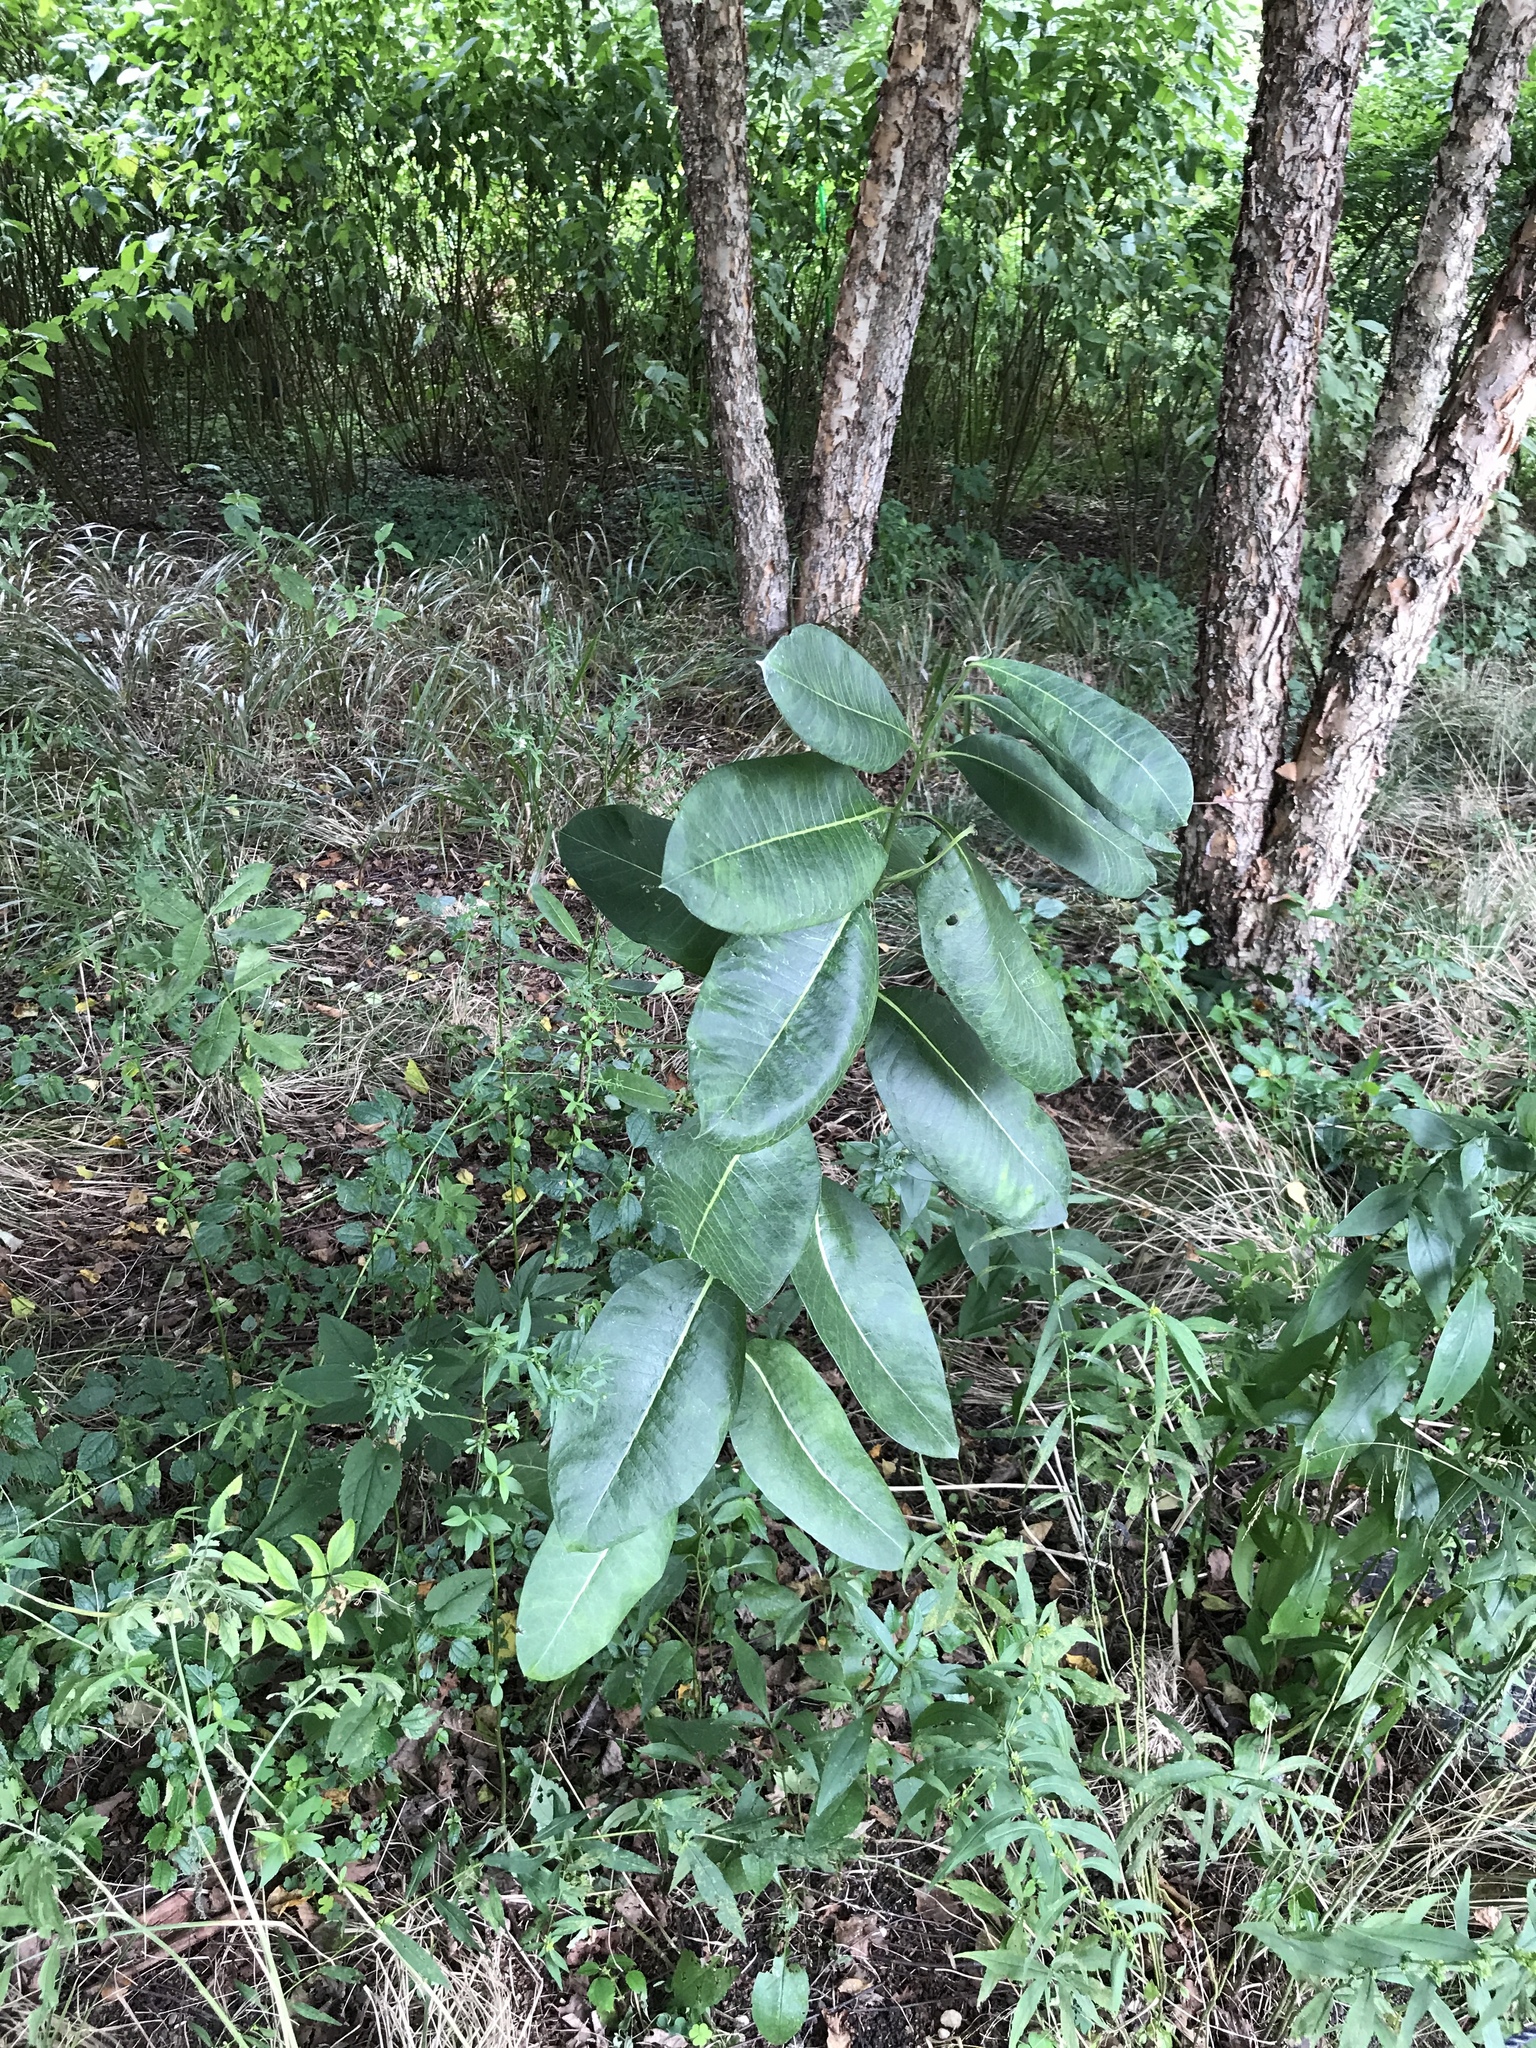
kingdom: Plantae
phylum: Tracheophyta
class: Magnoliopsida
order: Gentianales
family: Apocynaceae
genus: Asclepias
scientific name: Asclepias syriaca
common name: Common milkweed
